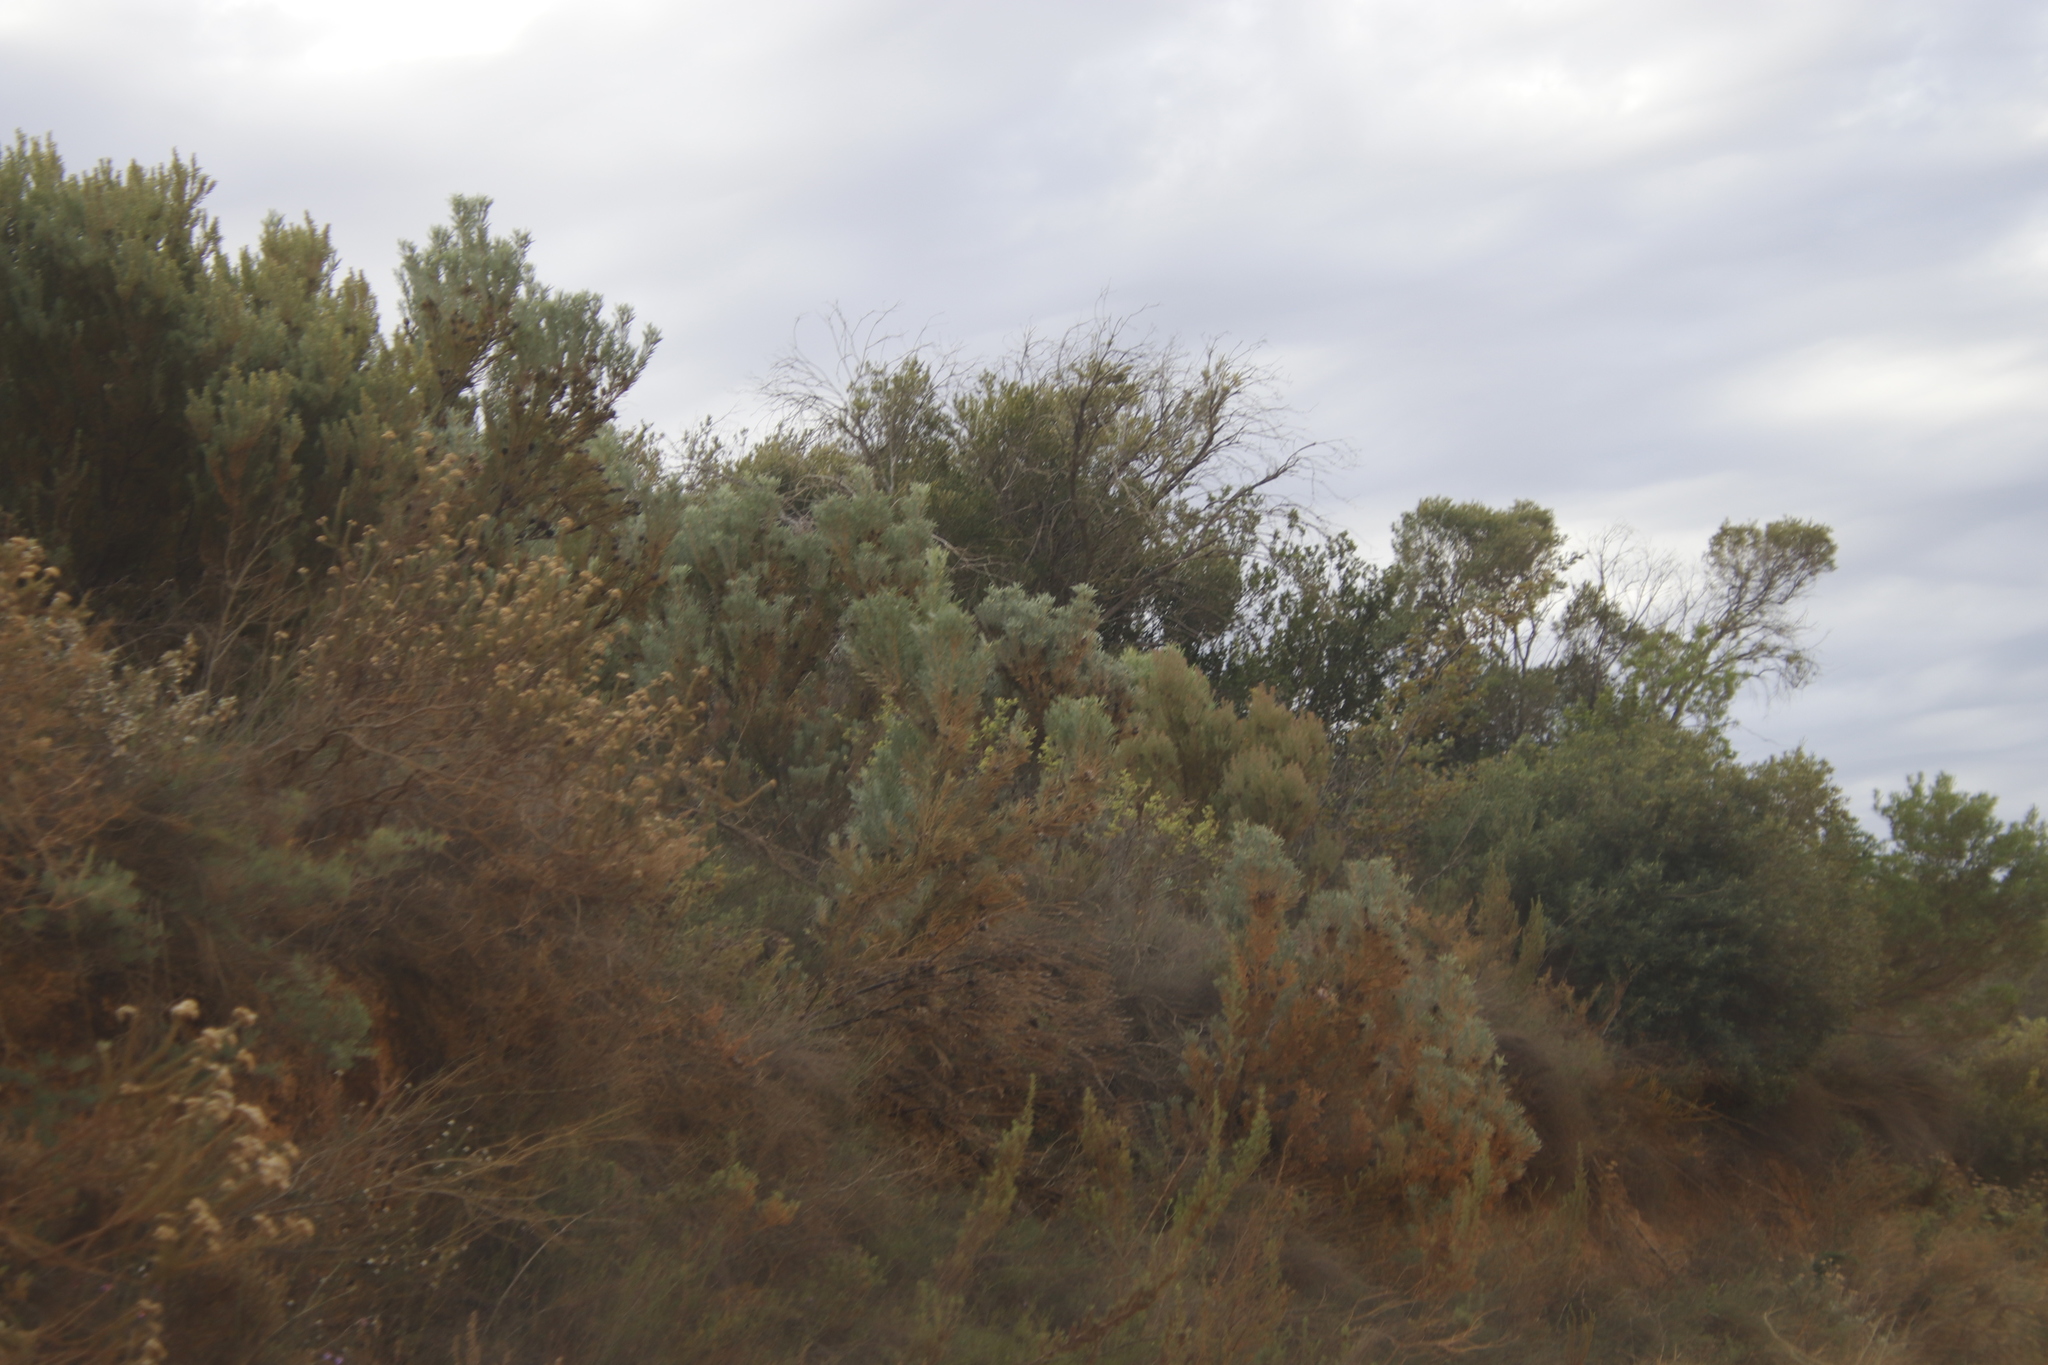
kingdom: Plantae
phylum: Tracheophyta
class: Magnoliopsida
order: Proteales
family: Proteaceae
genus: Leucadendron
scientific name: Leucadendron rubrum
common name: Spinning top
